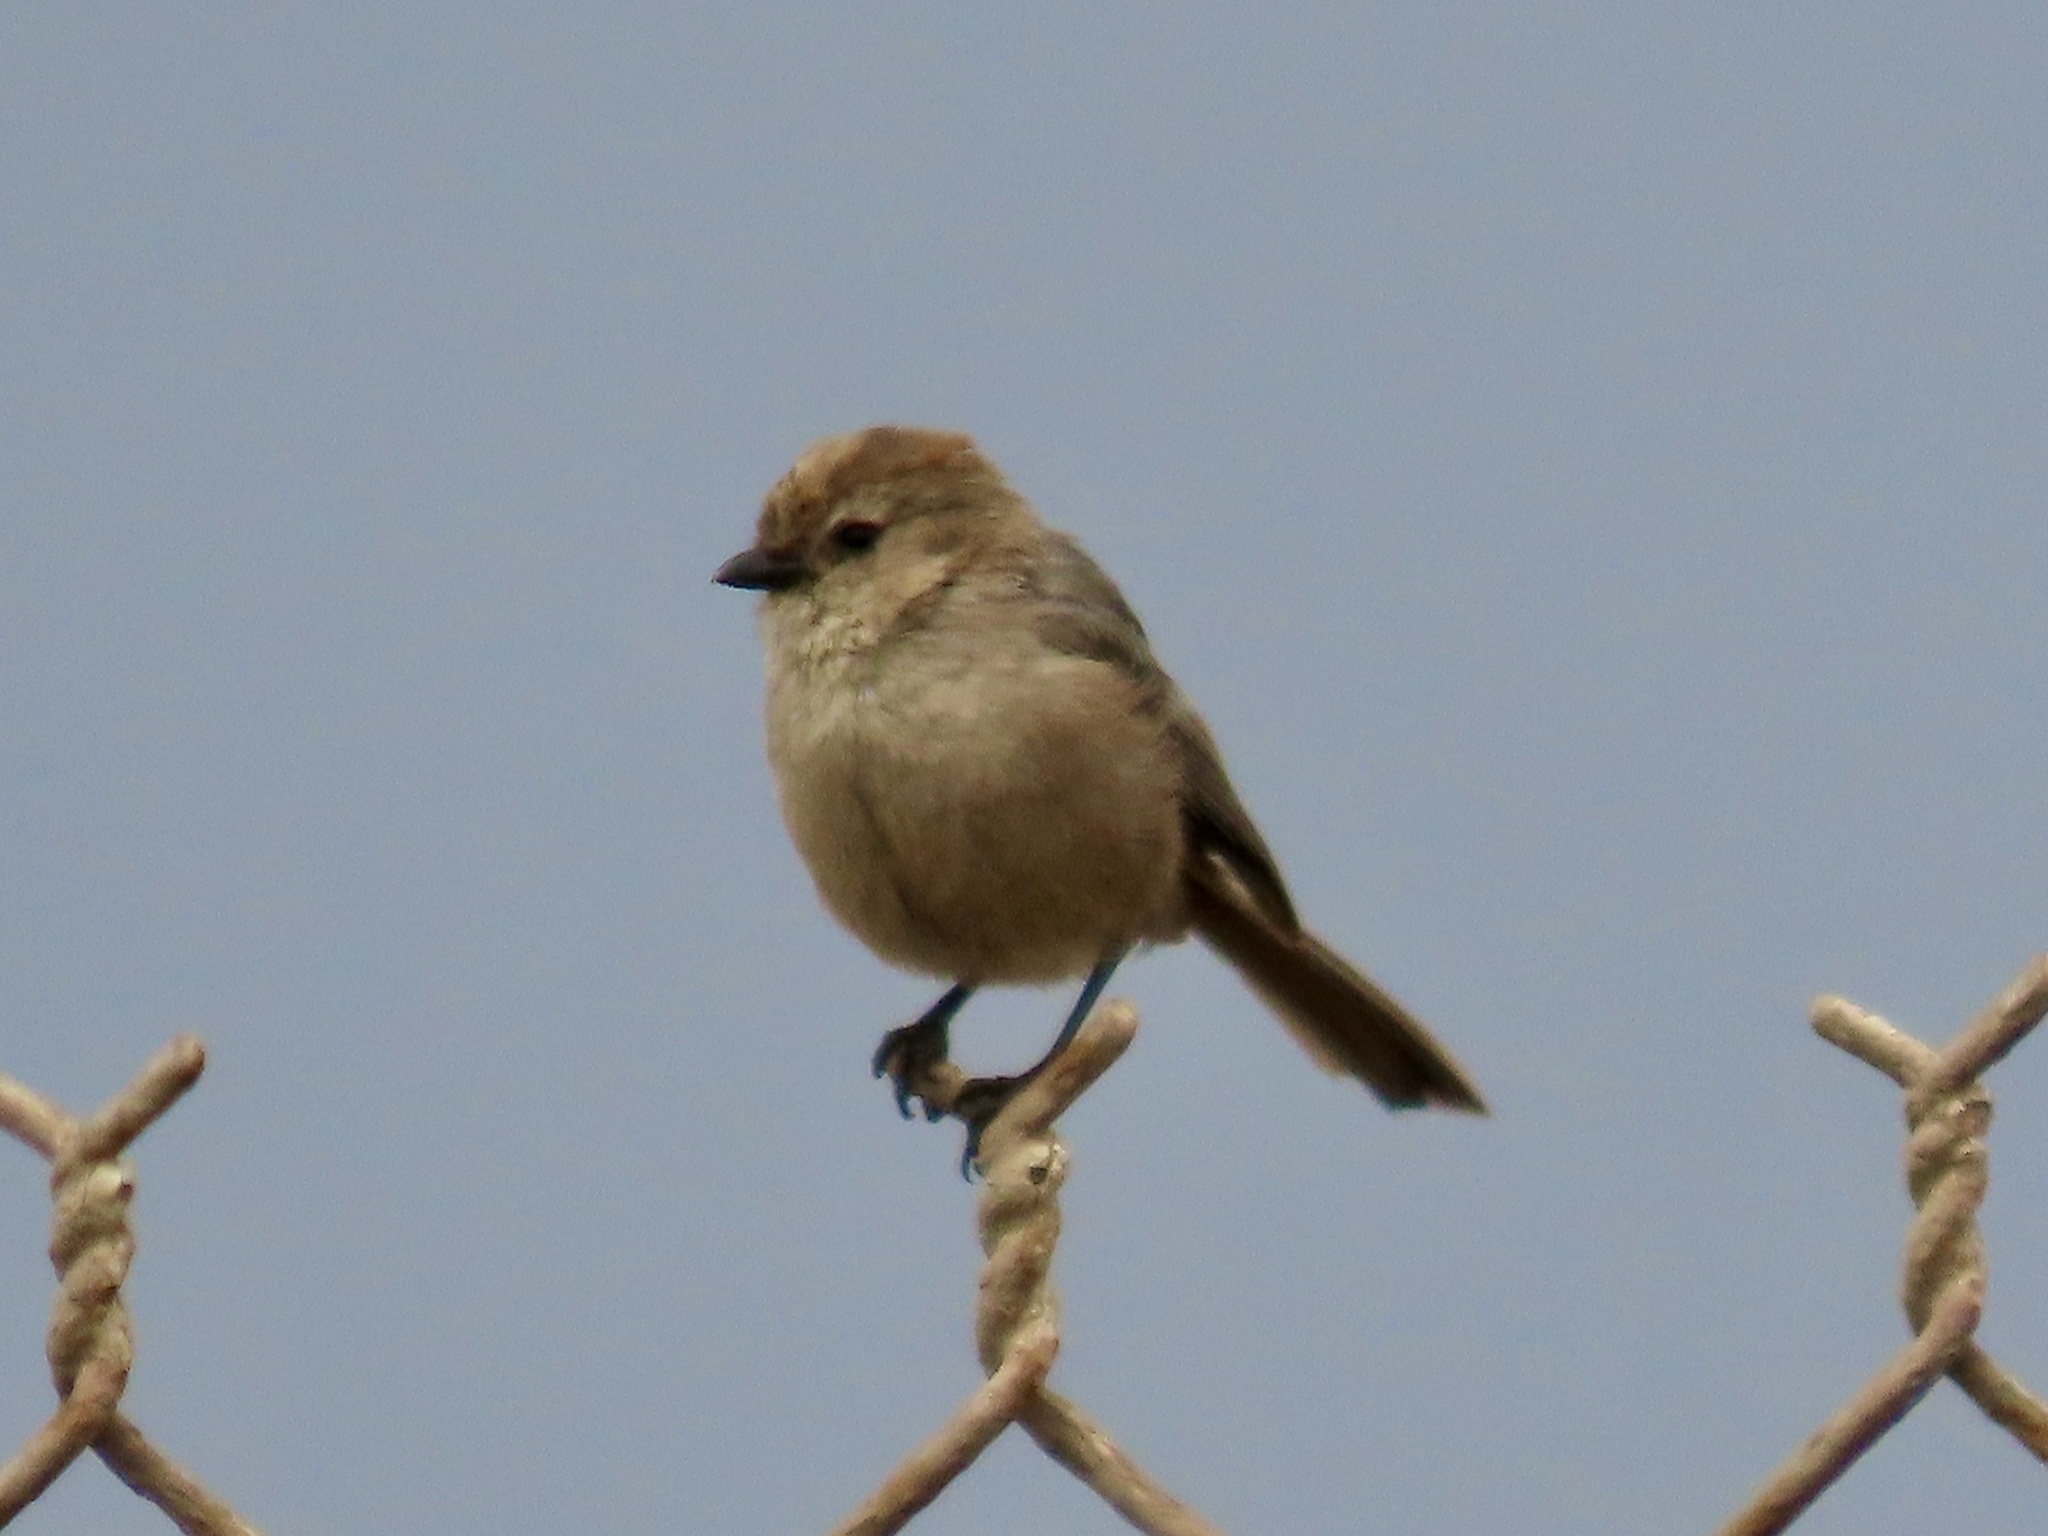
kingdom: Animalia
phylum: Chordata
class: Aves
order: Passeriformes
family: Aegithalidae
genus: Psaltriparus
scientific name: Psaltriparus minimus
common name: American bushtit
